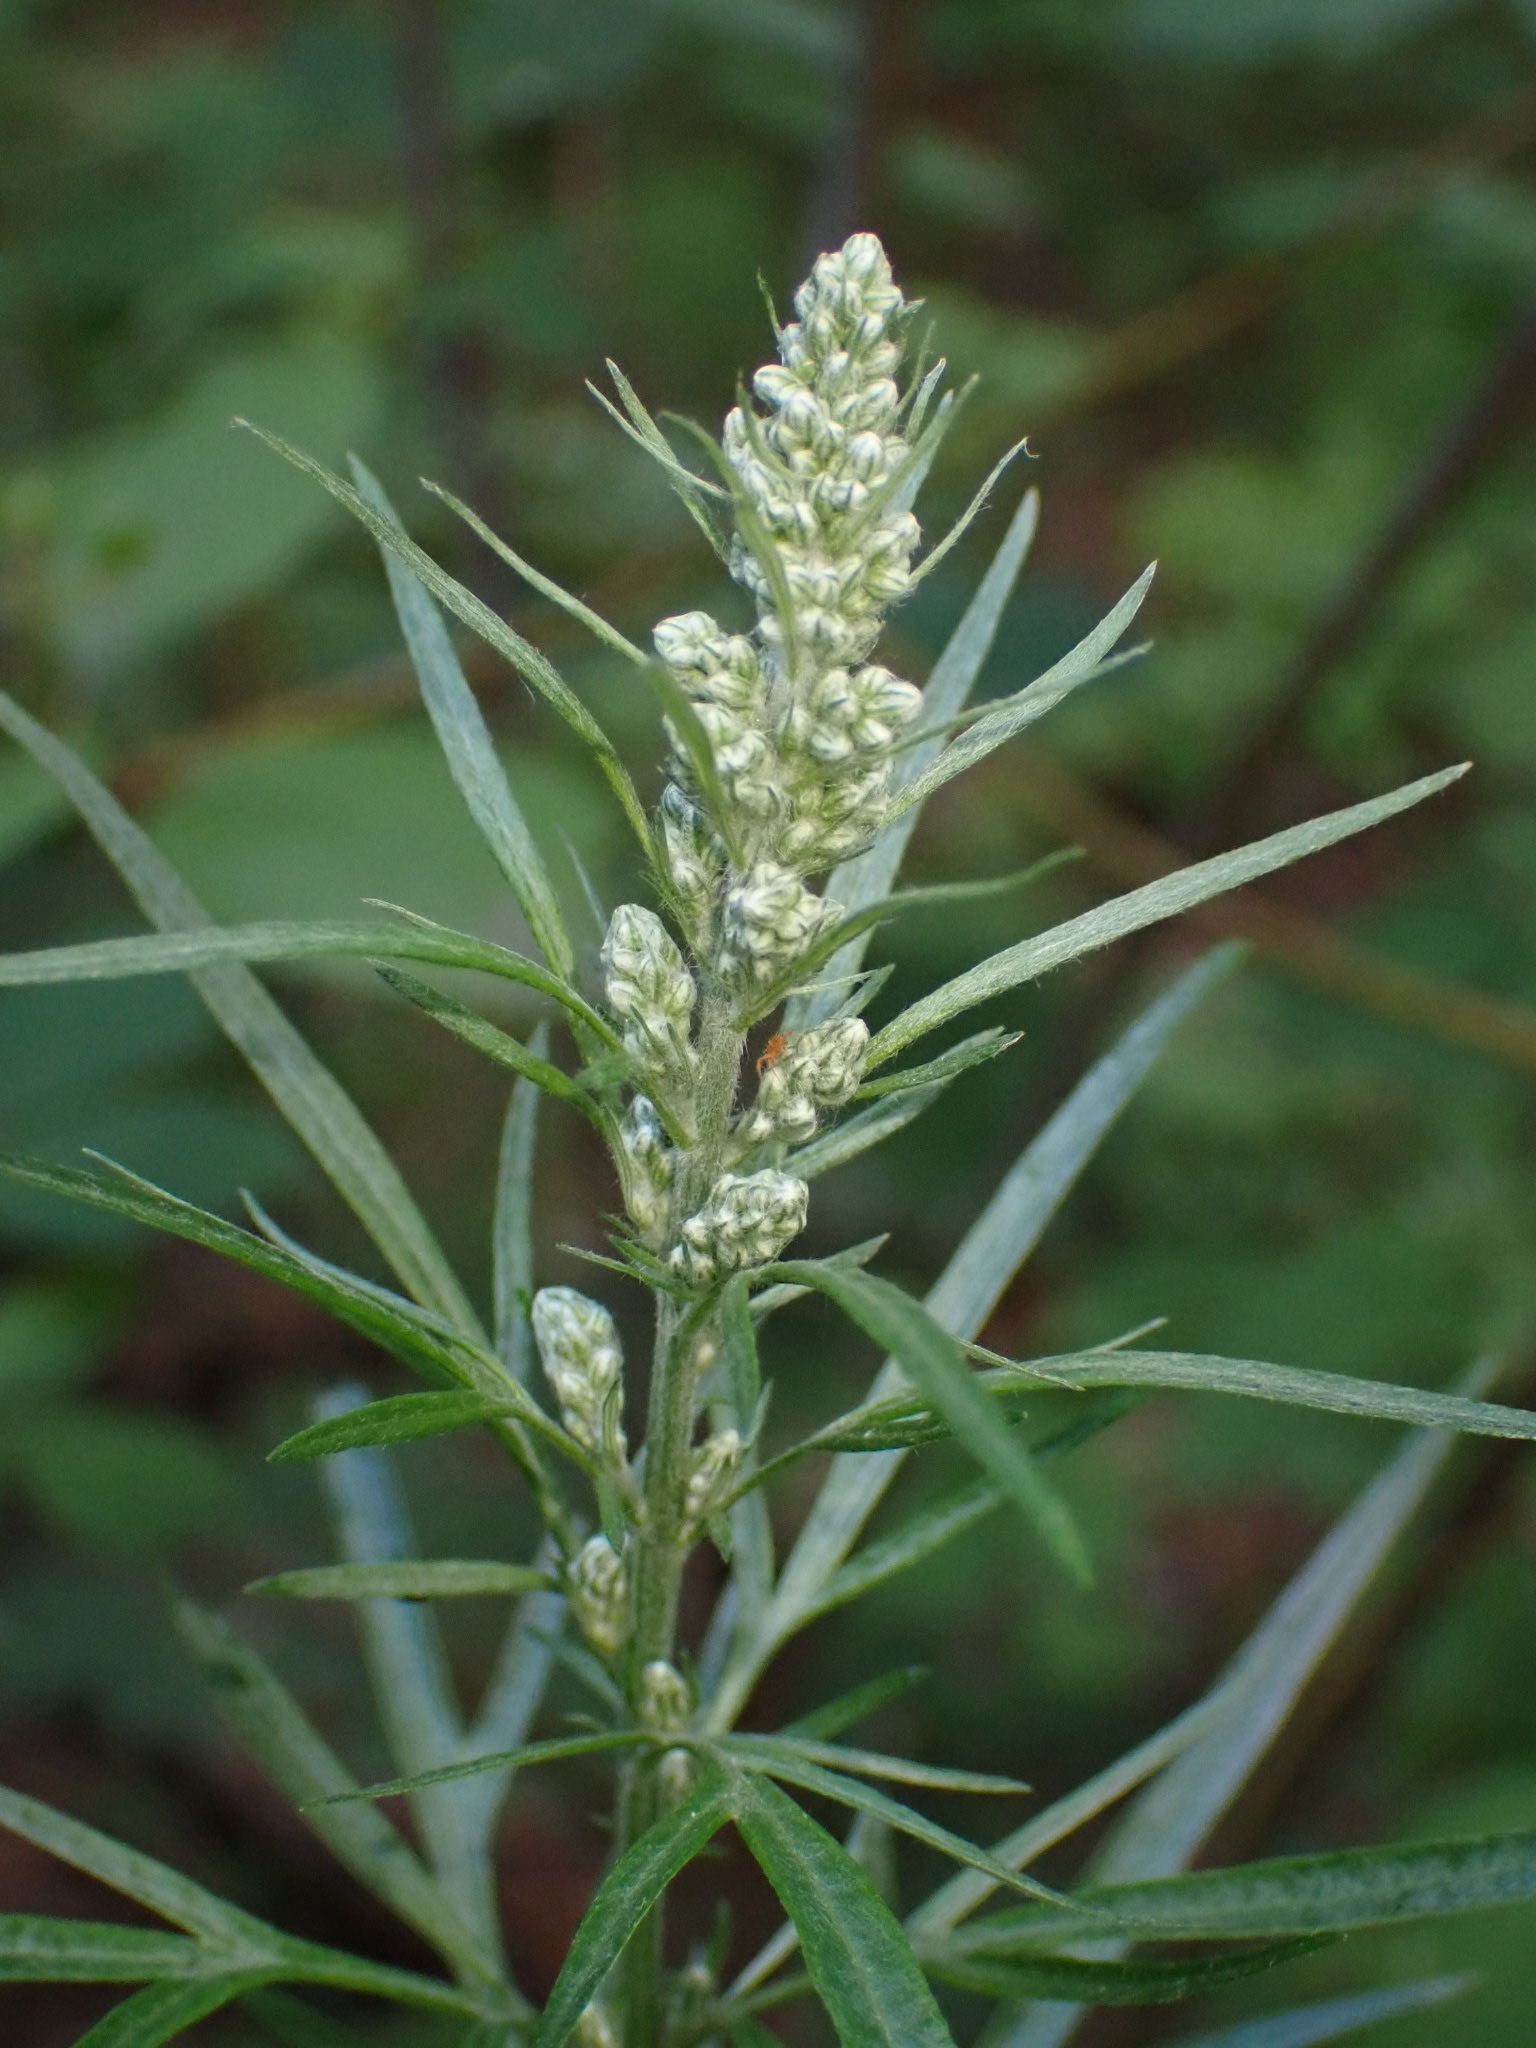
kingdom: Plantae
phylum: Tracheophyta
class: Magnoliopsida
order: Asterales
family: Asteraceae
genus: Artemisia
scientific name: Artemisia vulgaris
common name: Mugwort
